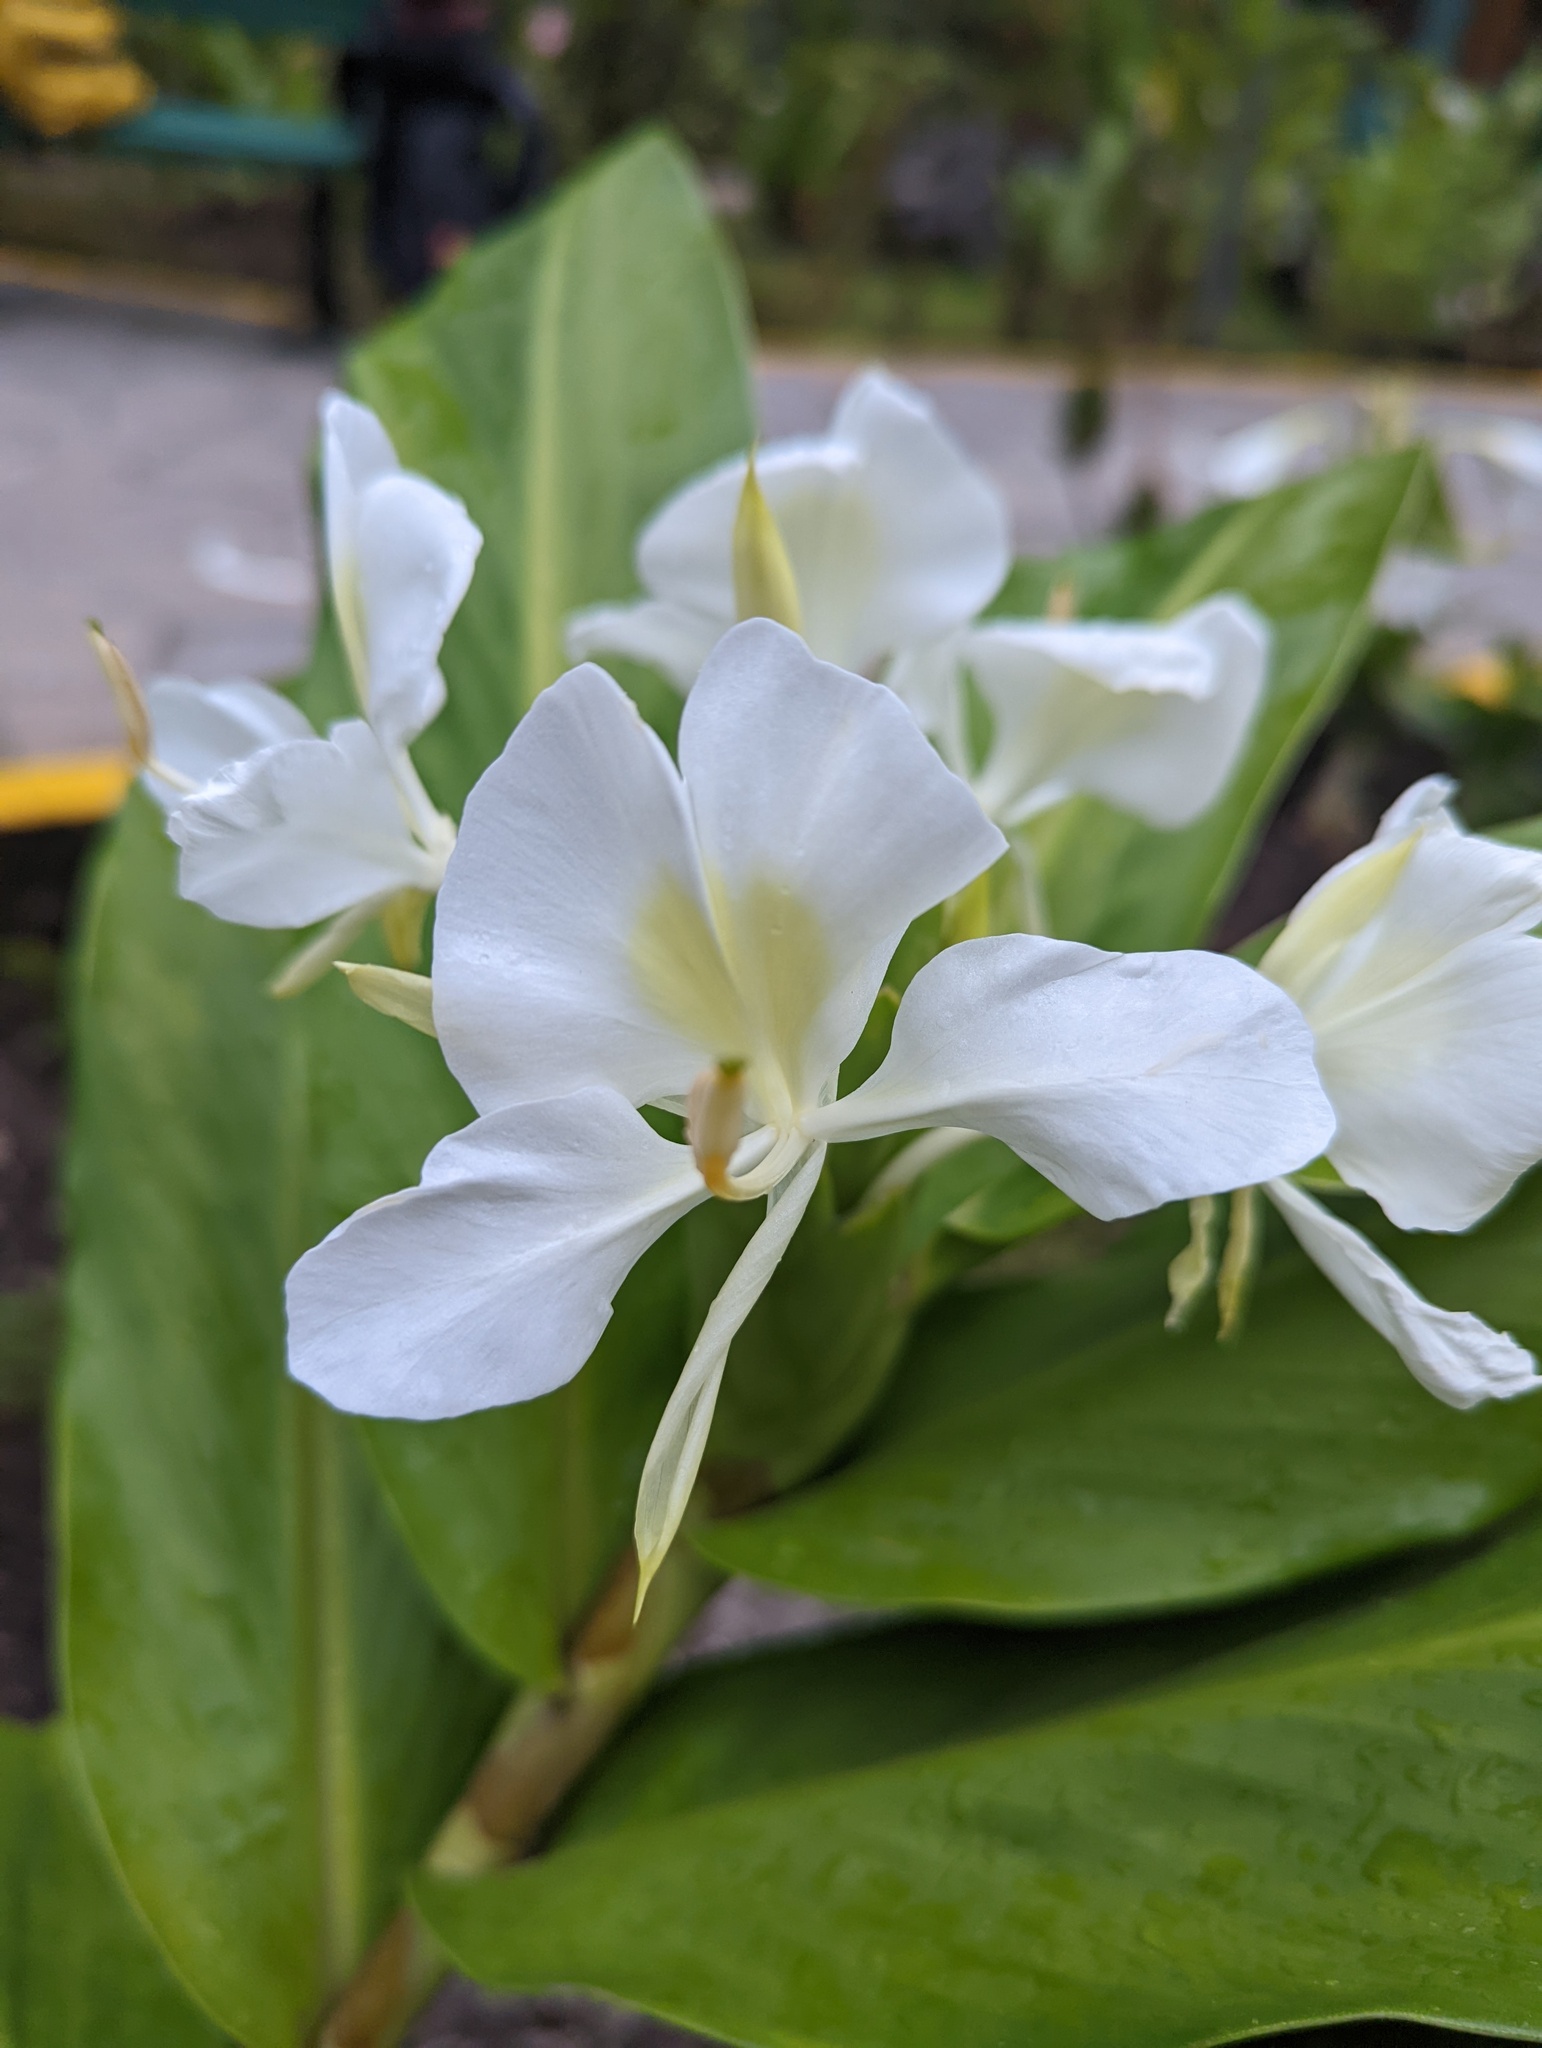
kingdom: Plantae
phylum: Tracheophyta
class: Liliopsida
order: Zingiberales
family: Zingiberaceae
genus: Hedychium
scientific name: Hedychium coronarium
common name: White garland-lily
